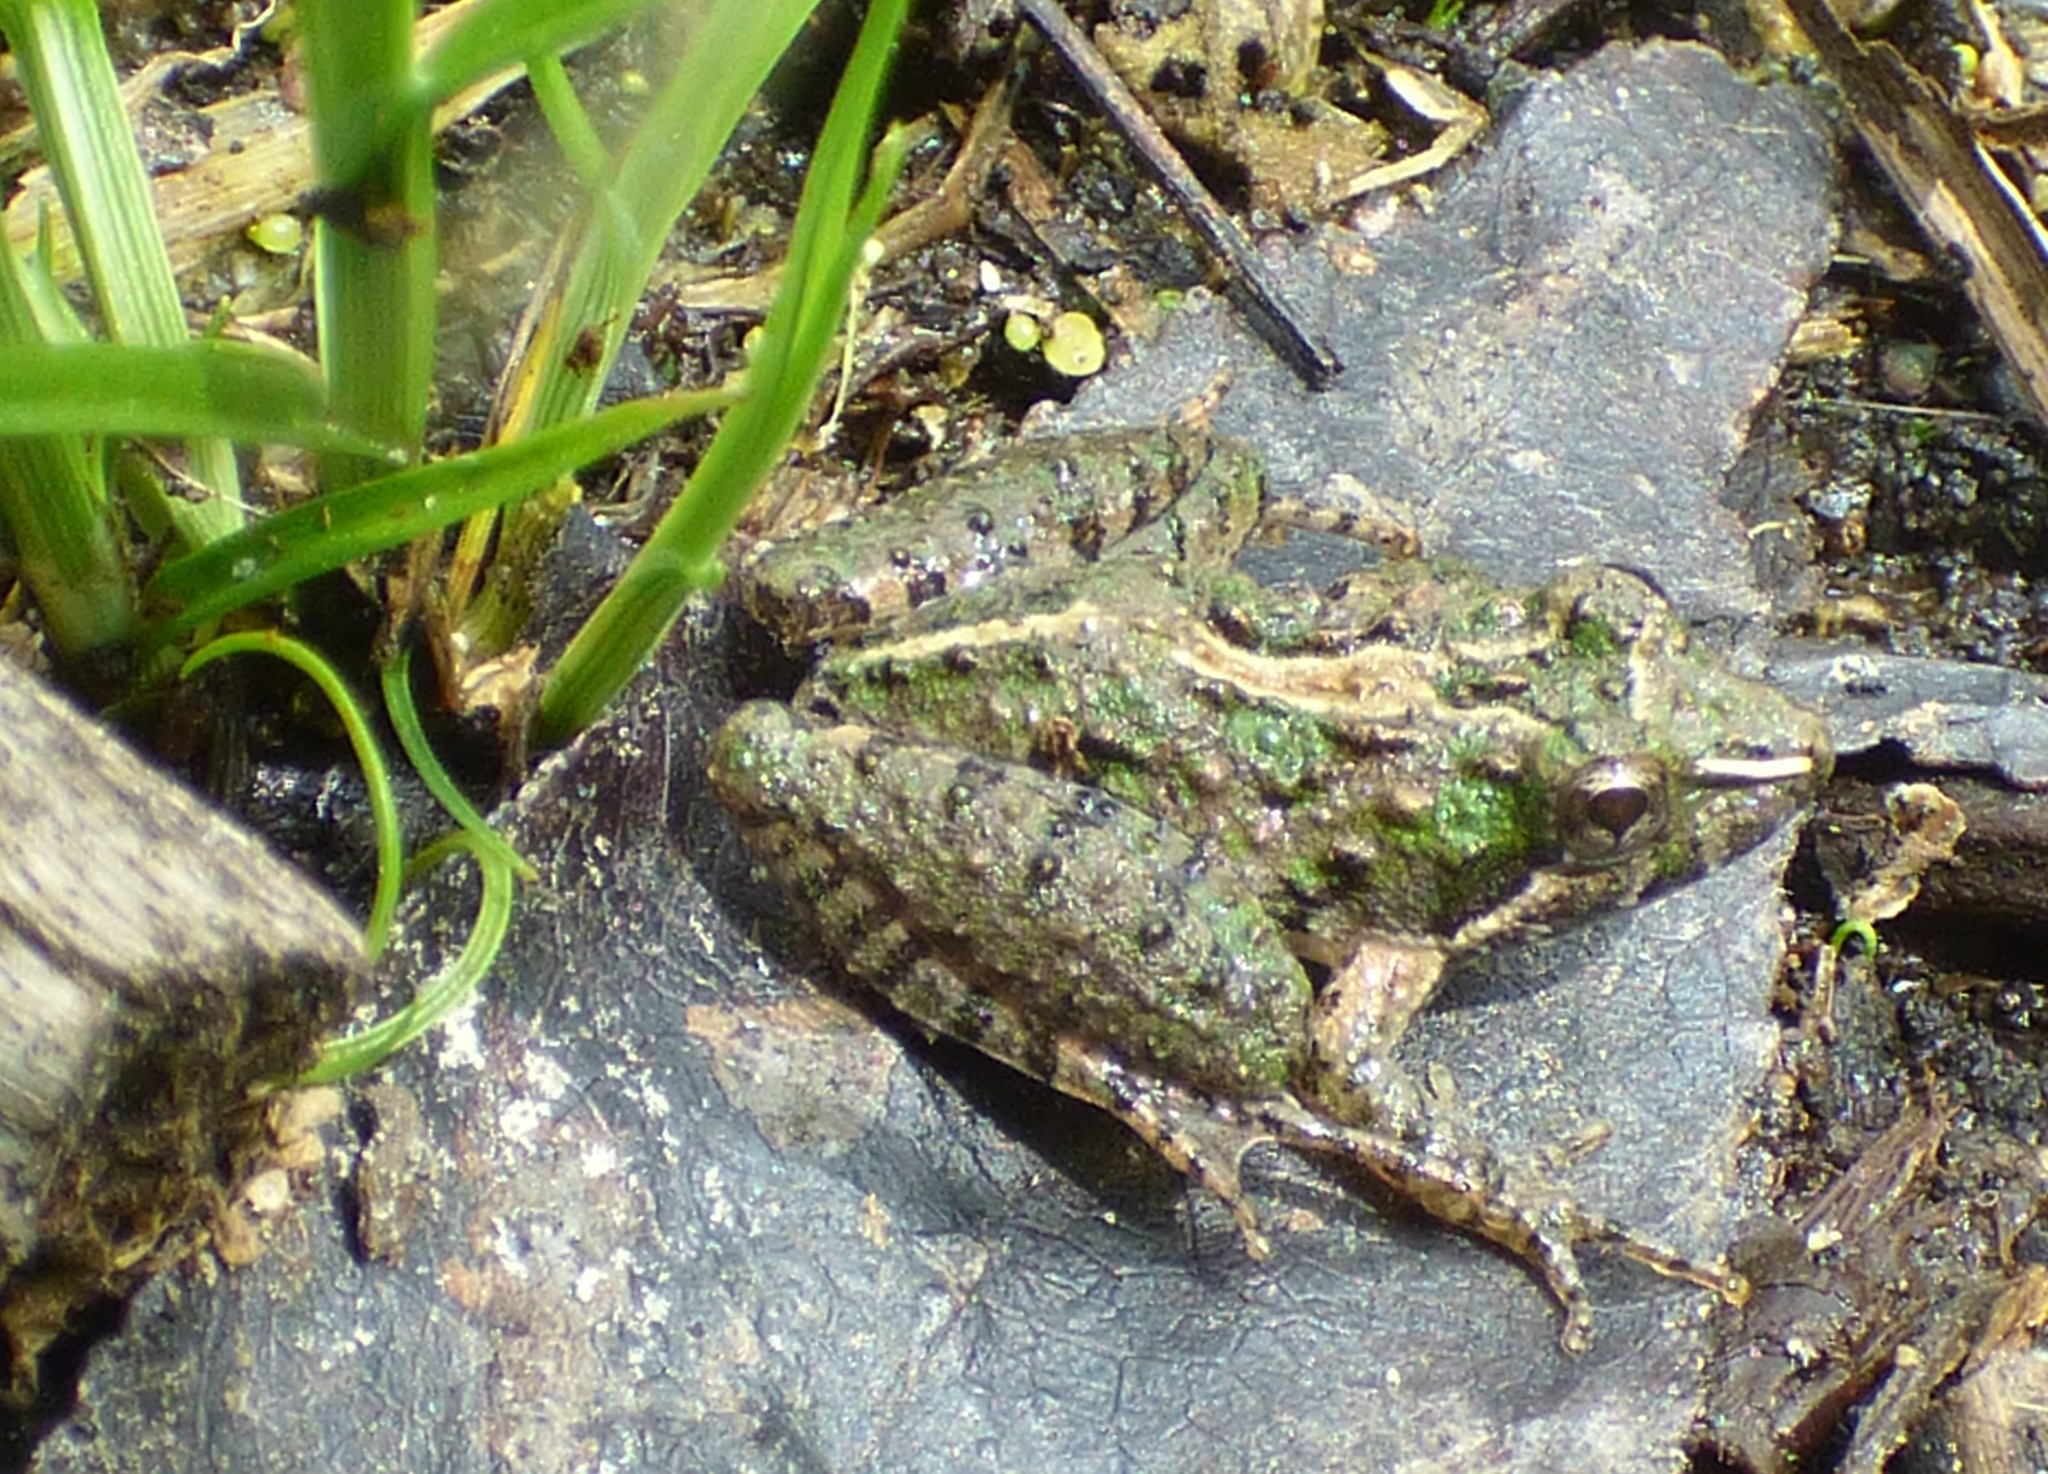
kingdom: Animalia
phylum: Chordata
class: Amphibia
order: Anura
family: Hylidae
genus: Acris
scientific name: Acris gryllus
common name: Southern cricket frog
